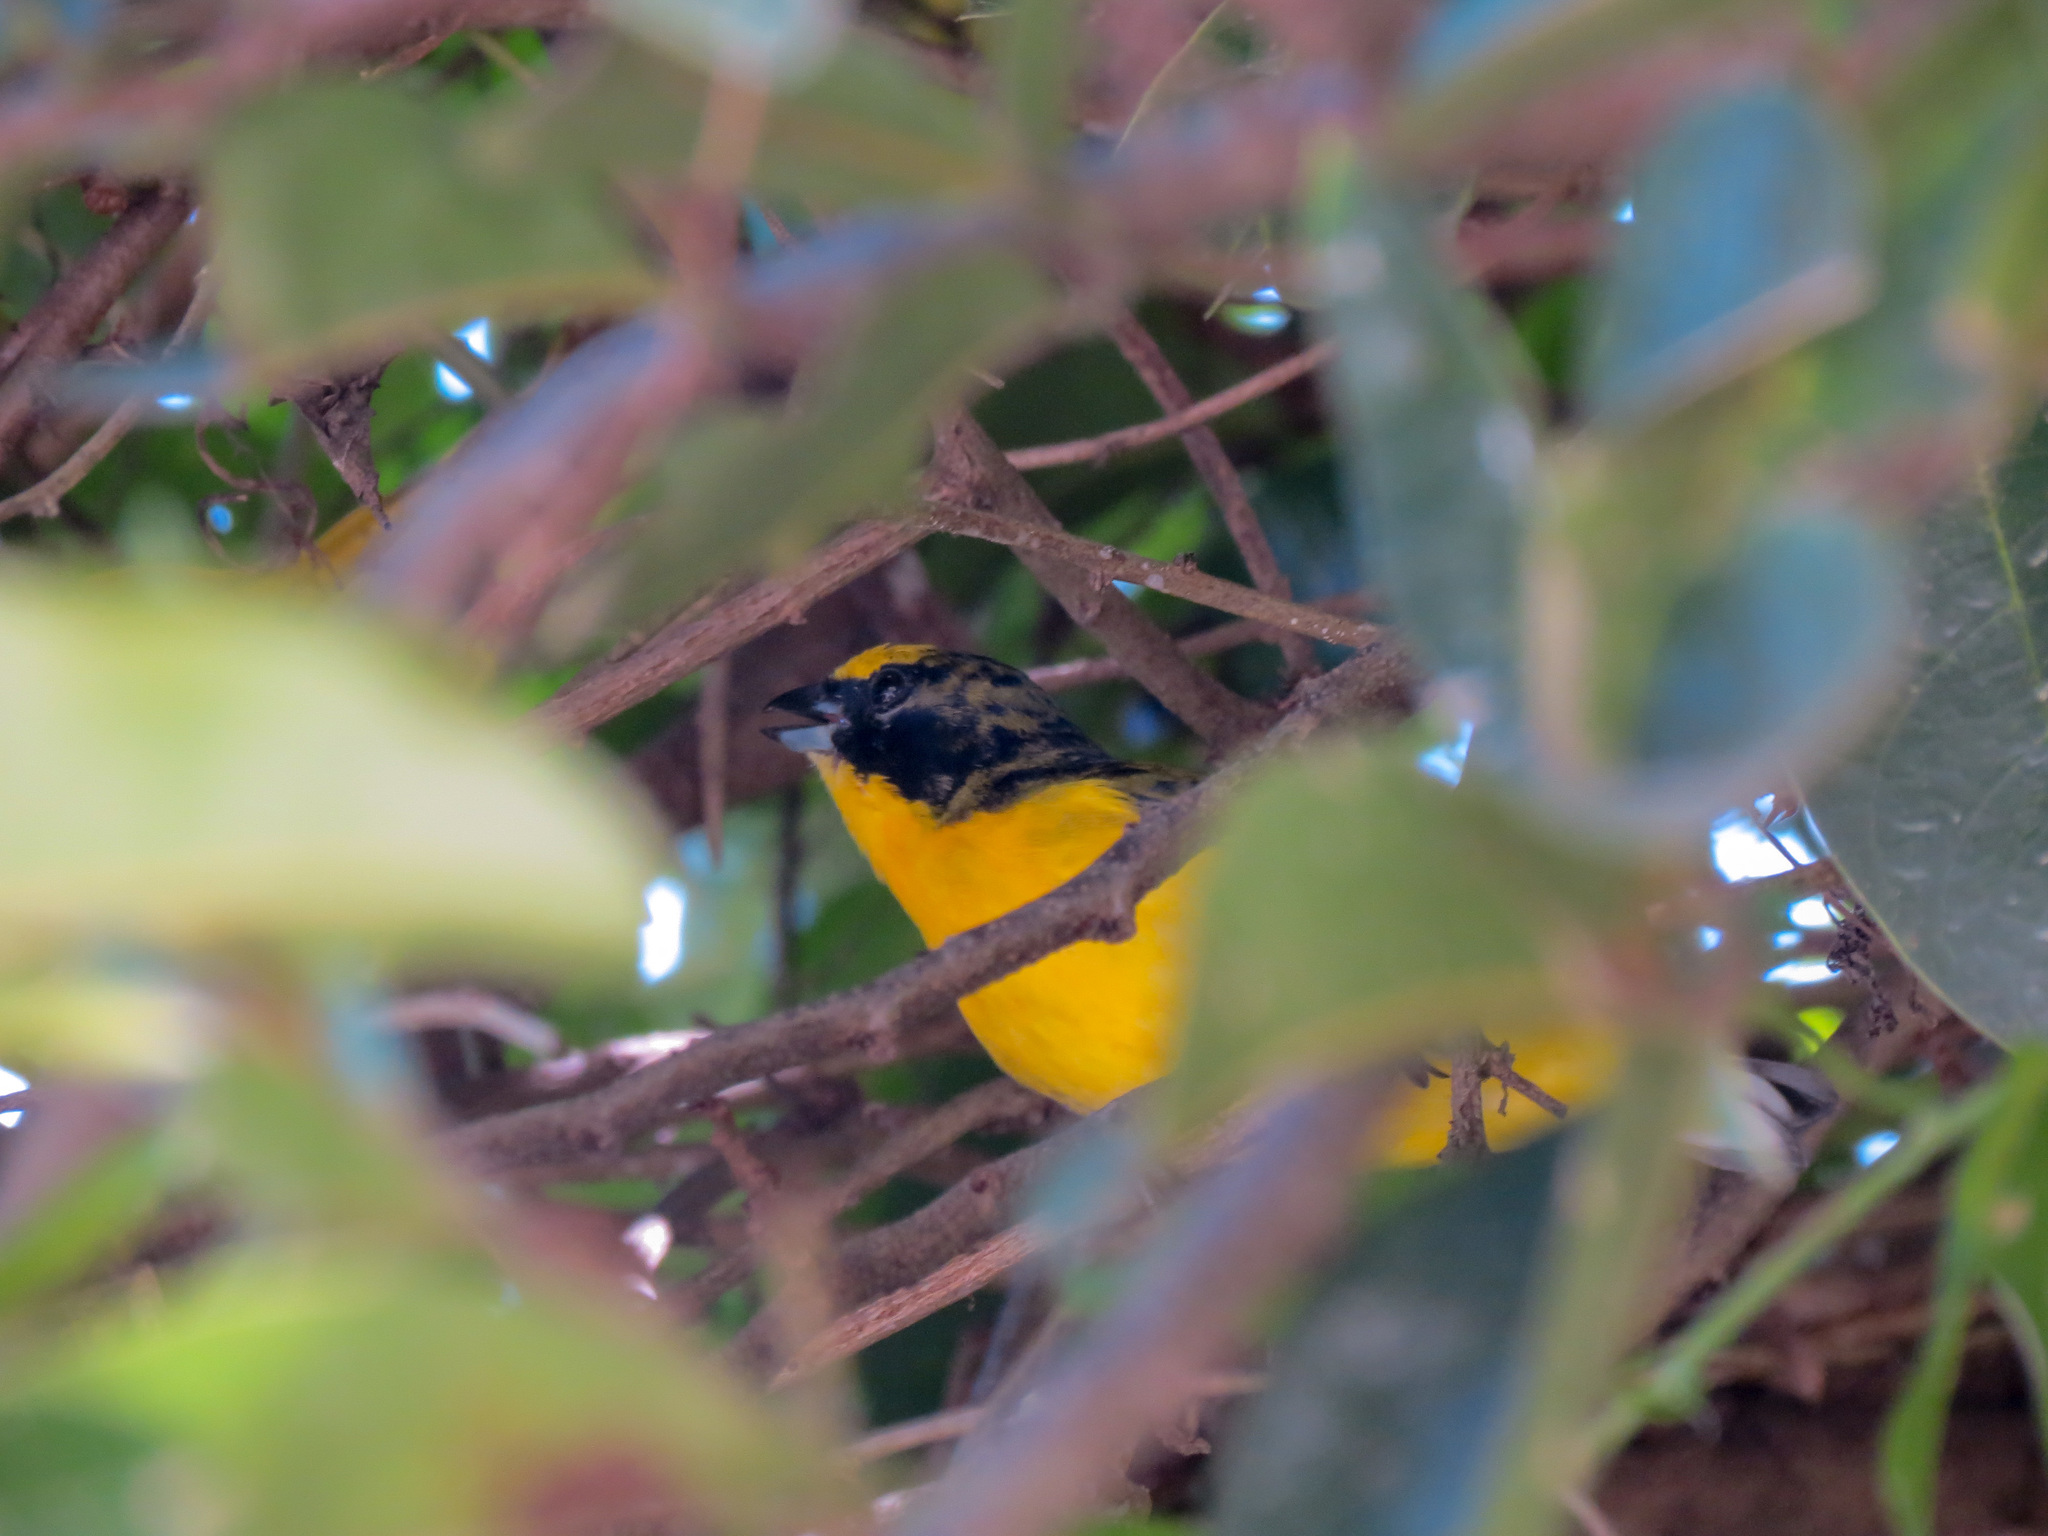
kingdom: Animalia
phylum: Chordata
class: Aves
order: Passeriformes
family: Fringillidae
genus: Euphonia
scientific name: Euphonia laniirostris
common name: Thick-billed euphonia
